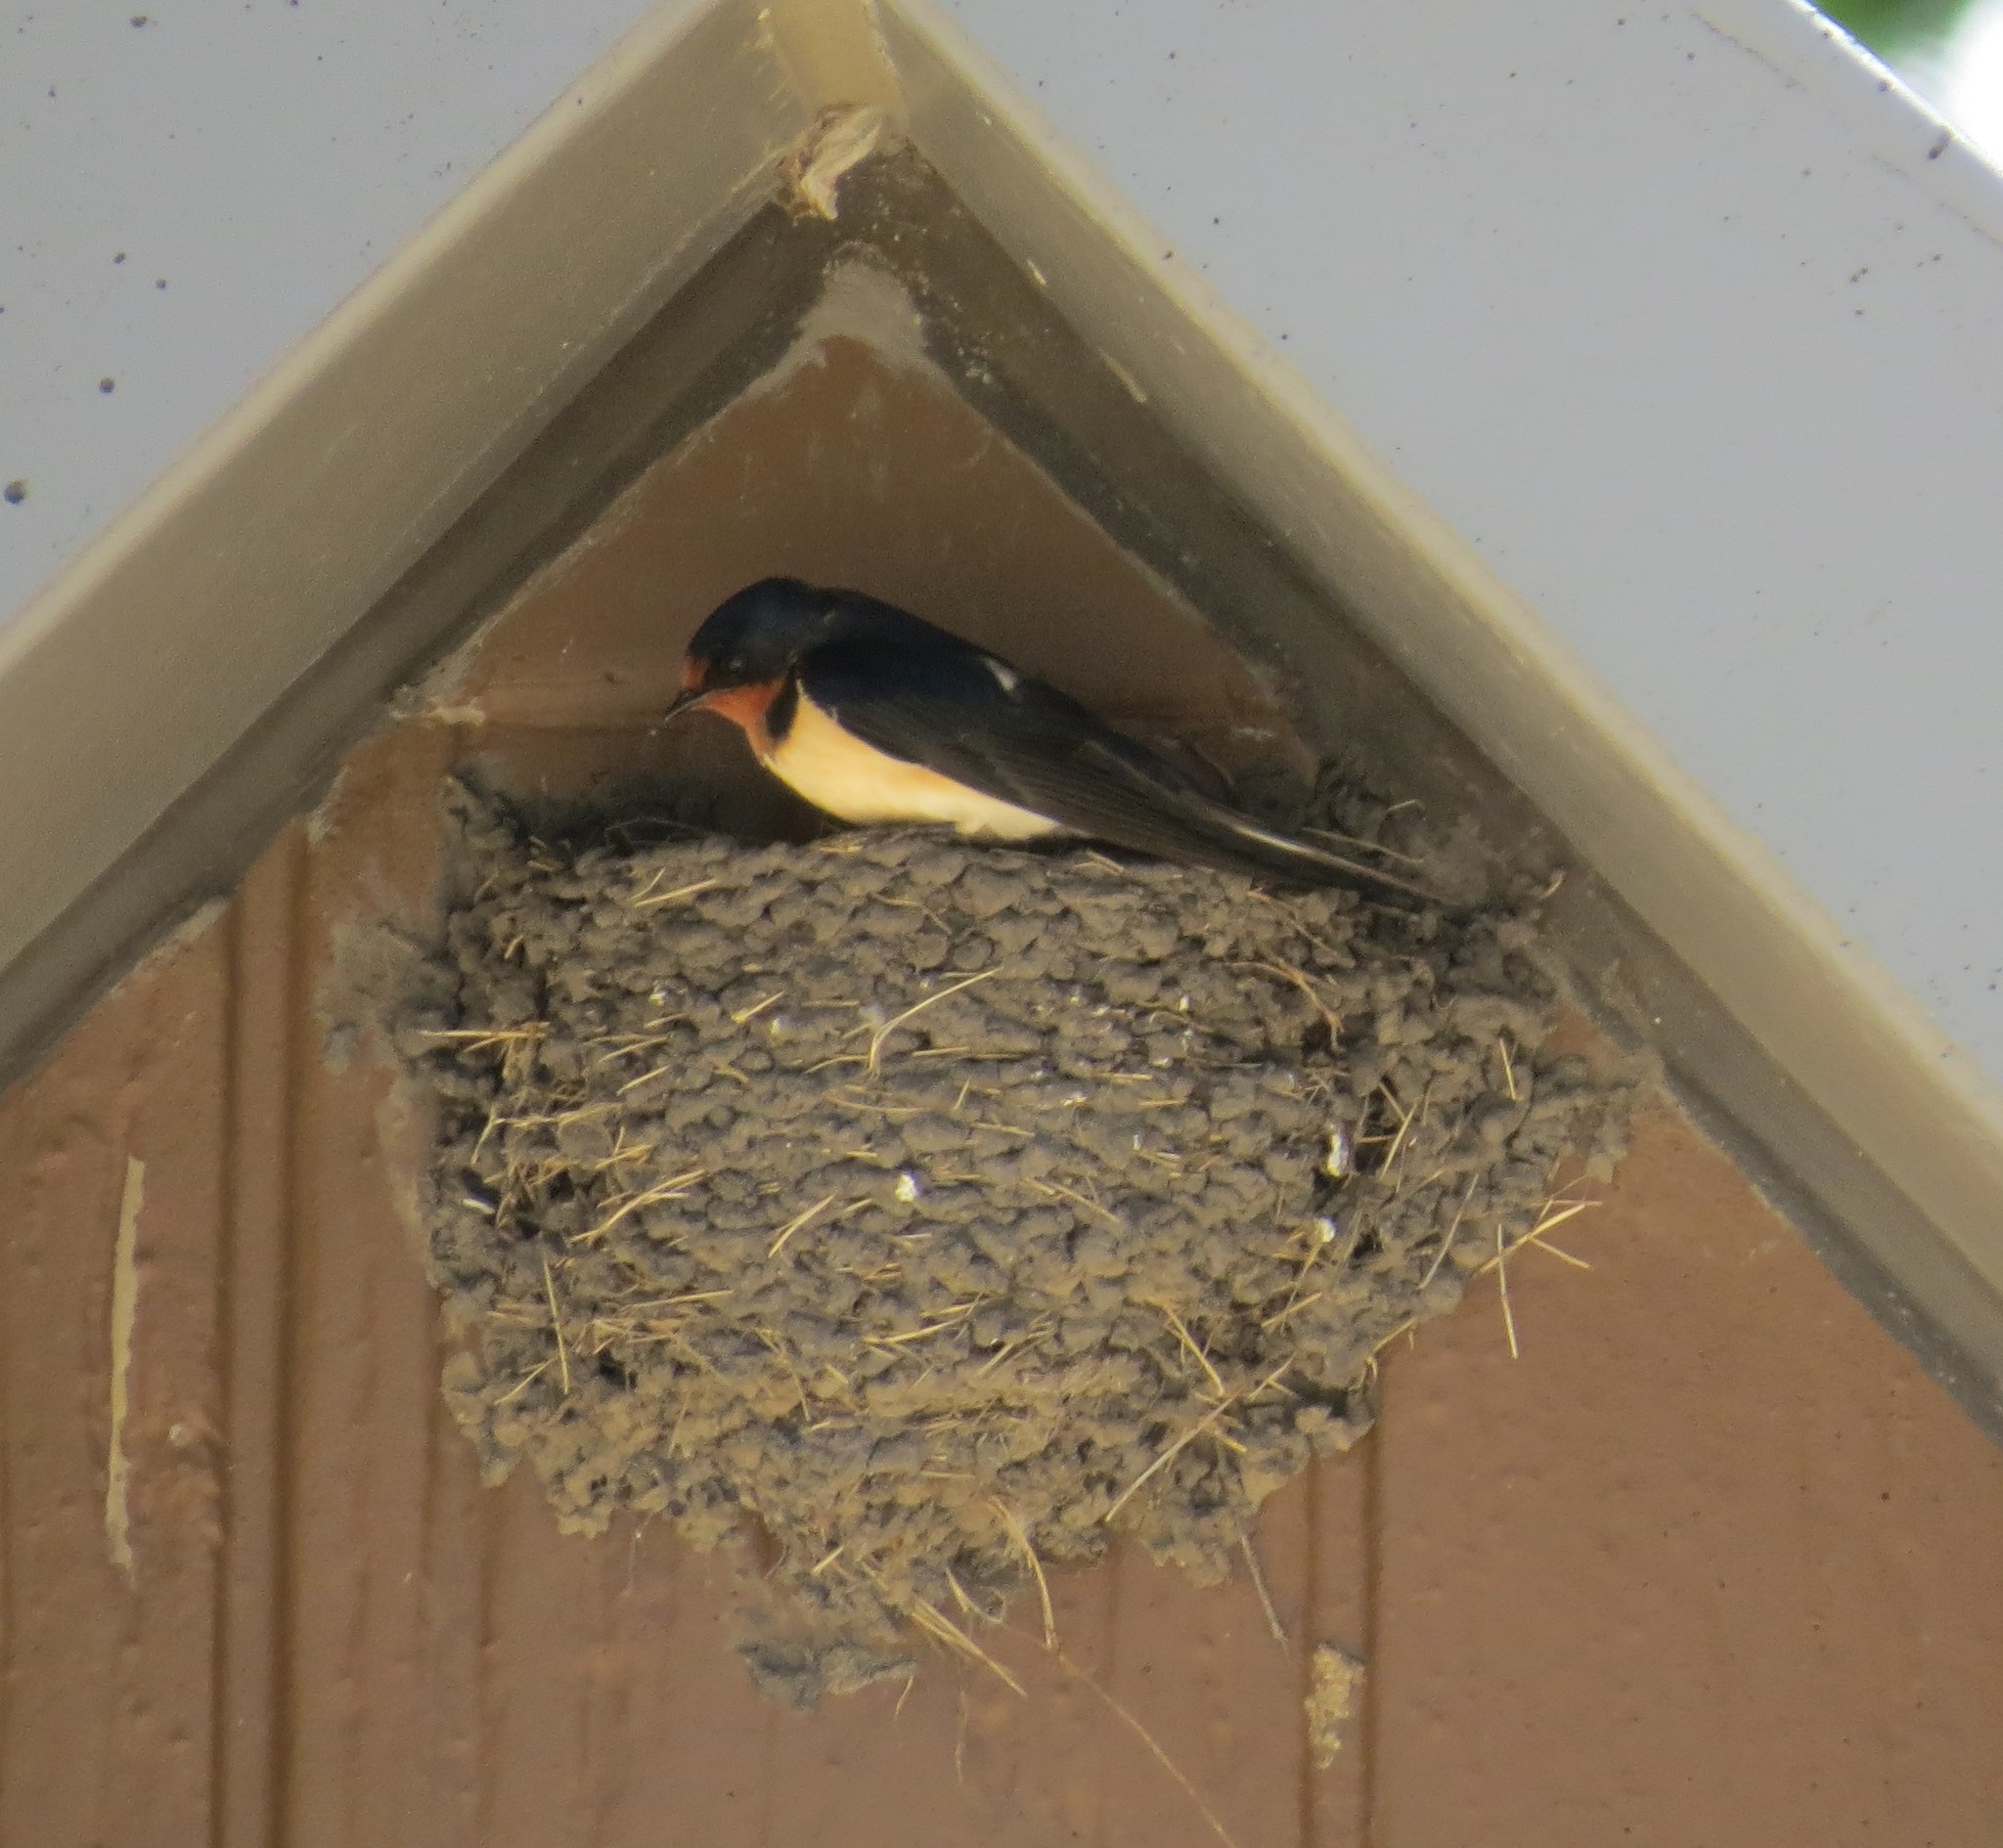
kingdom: Animalia
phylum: Chordata
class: Aves
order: Passeriformes
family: Hirundinidae
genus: Hirundo
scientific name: Hirundo rustica
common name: Barn swallow
